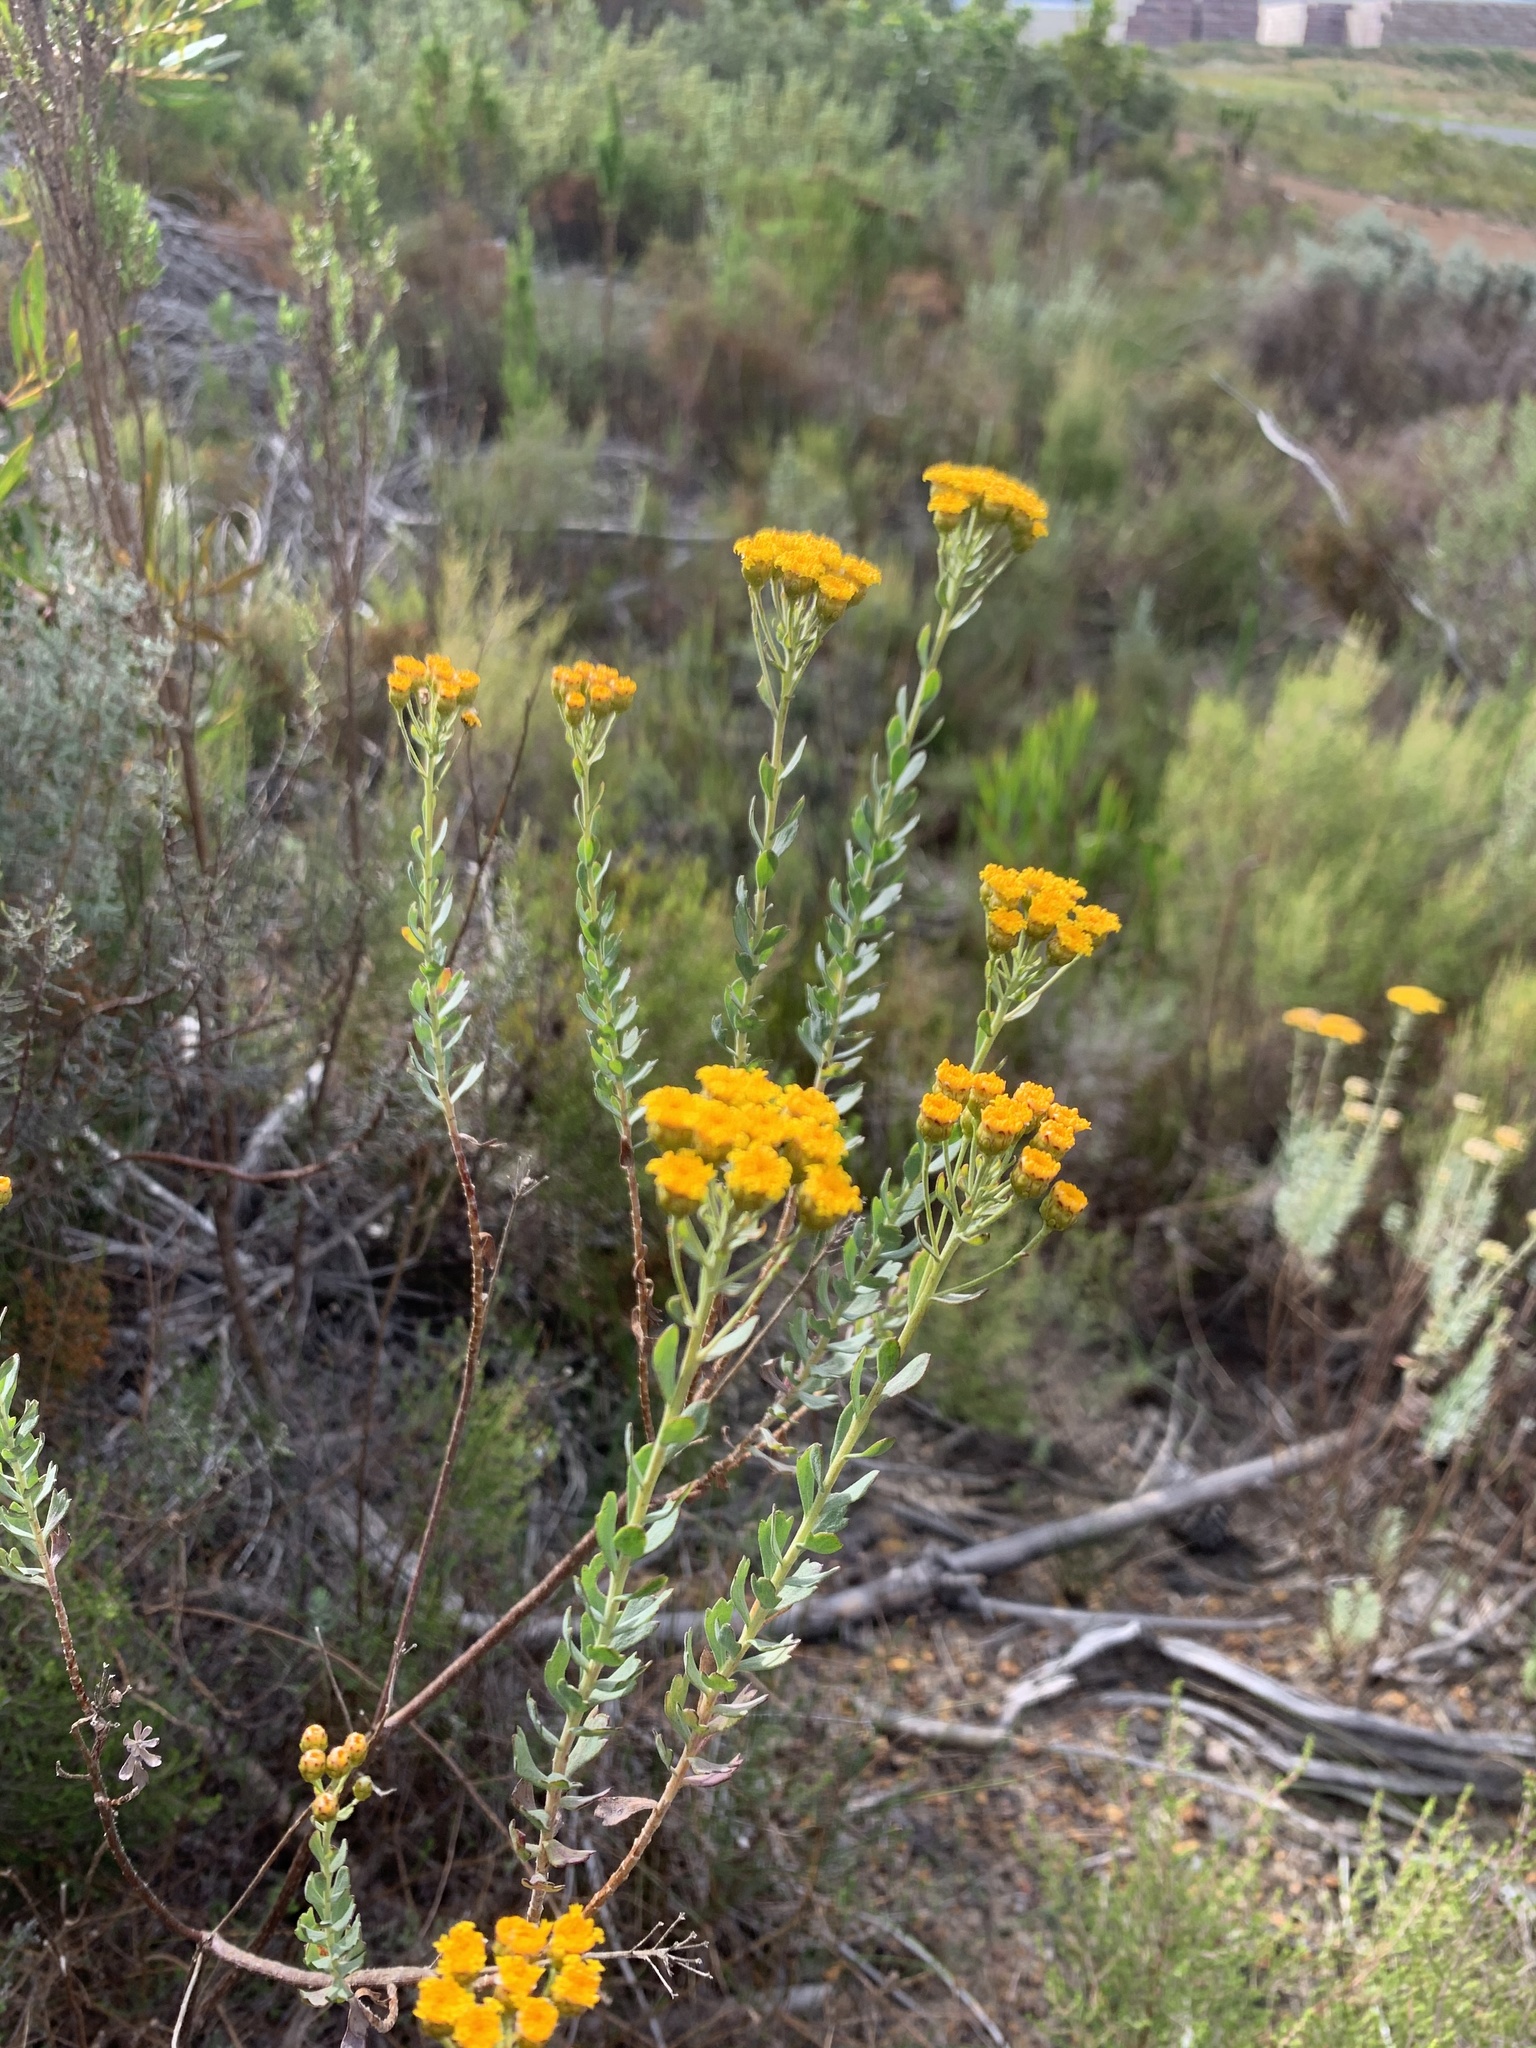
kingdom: Plantae
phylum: Tracheophyta
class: Magnoliopsida
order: Asterales
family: Asteraceae
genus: Athanasia
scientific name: Athanasia trifurcata
